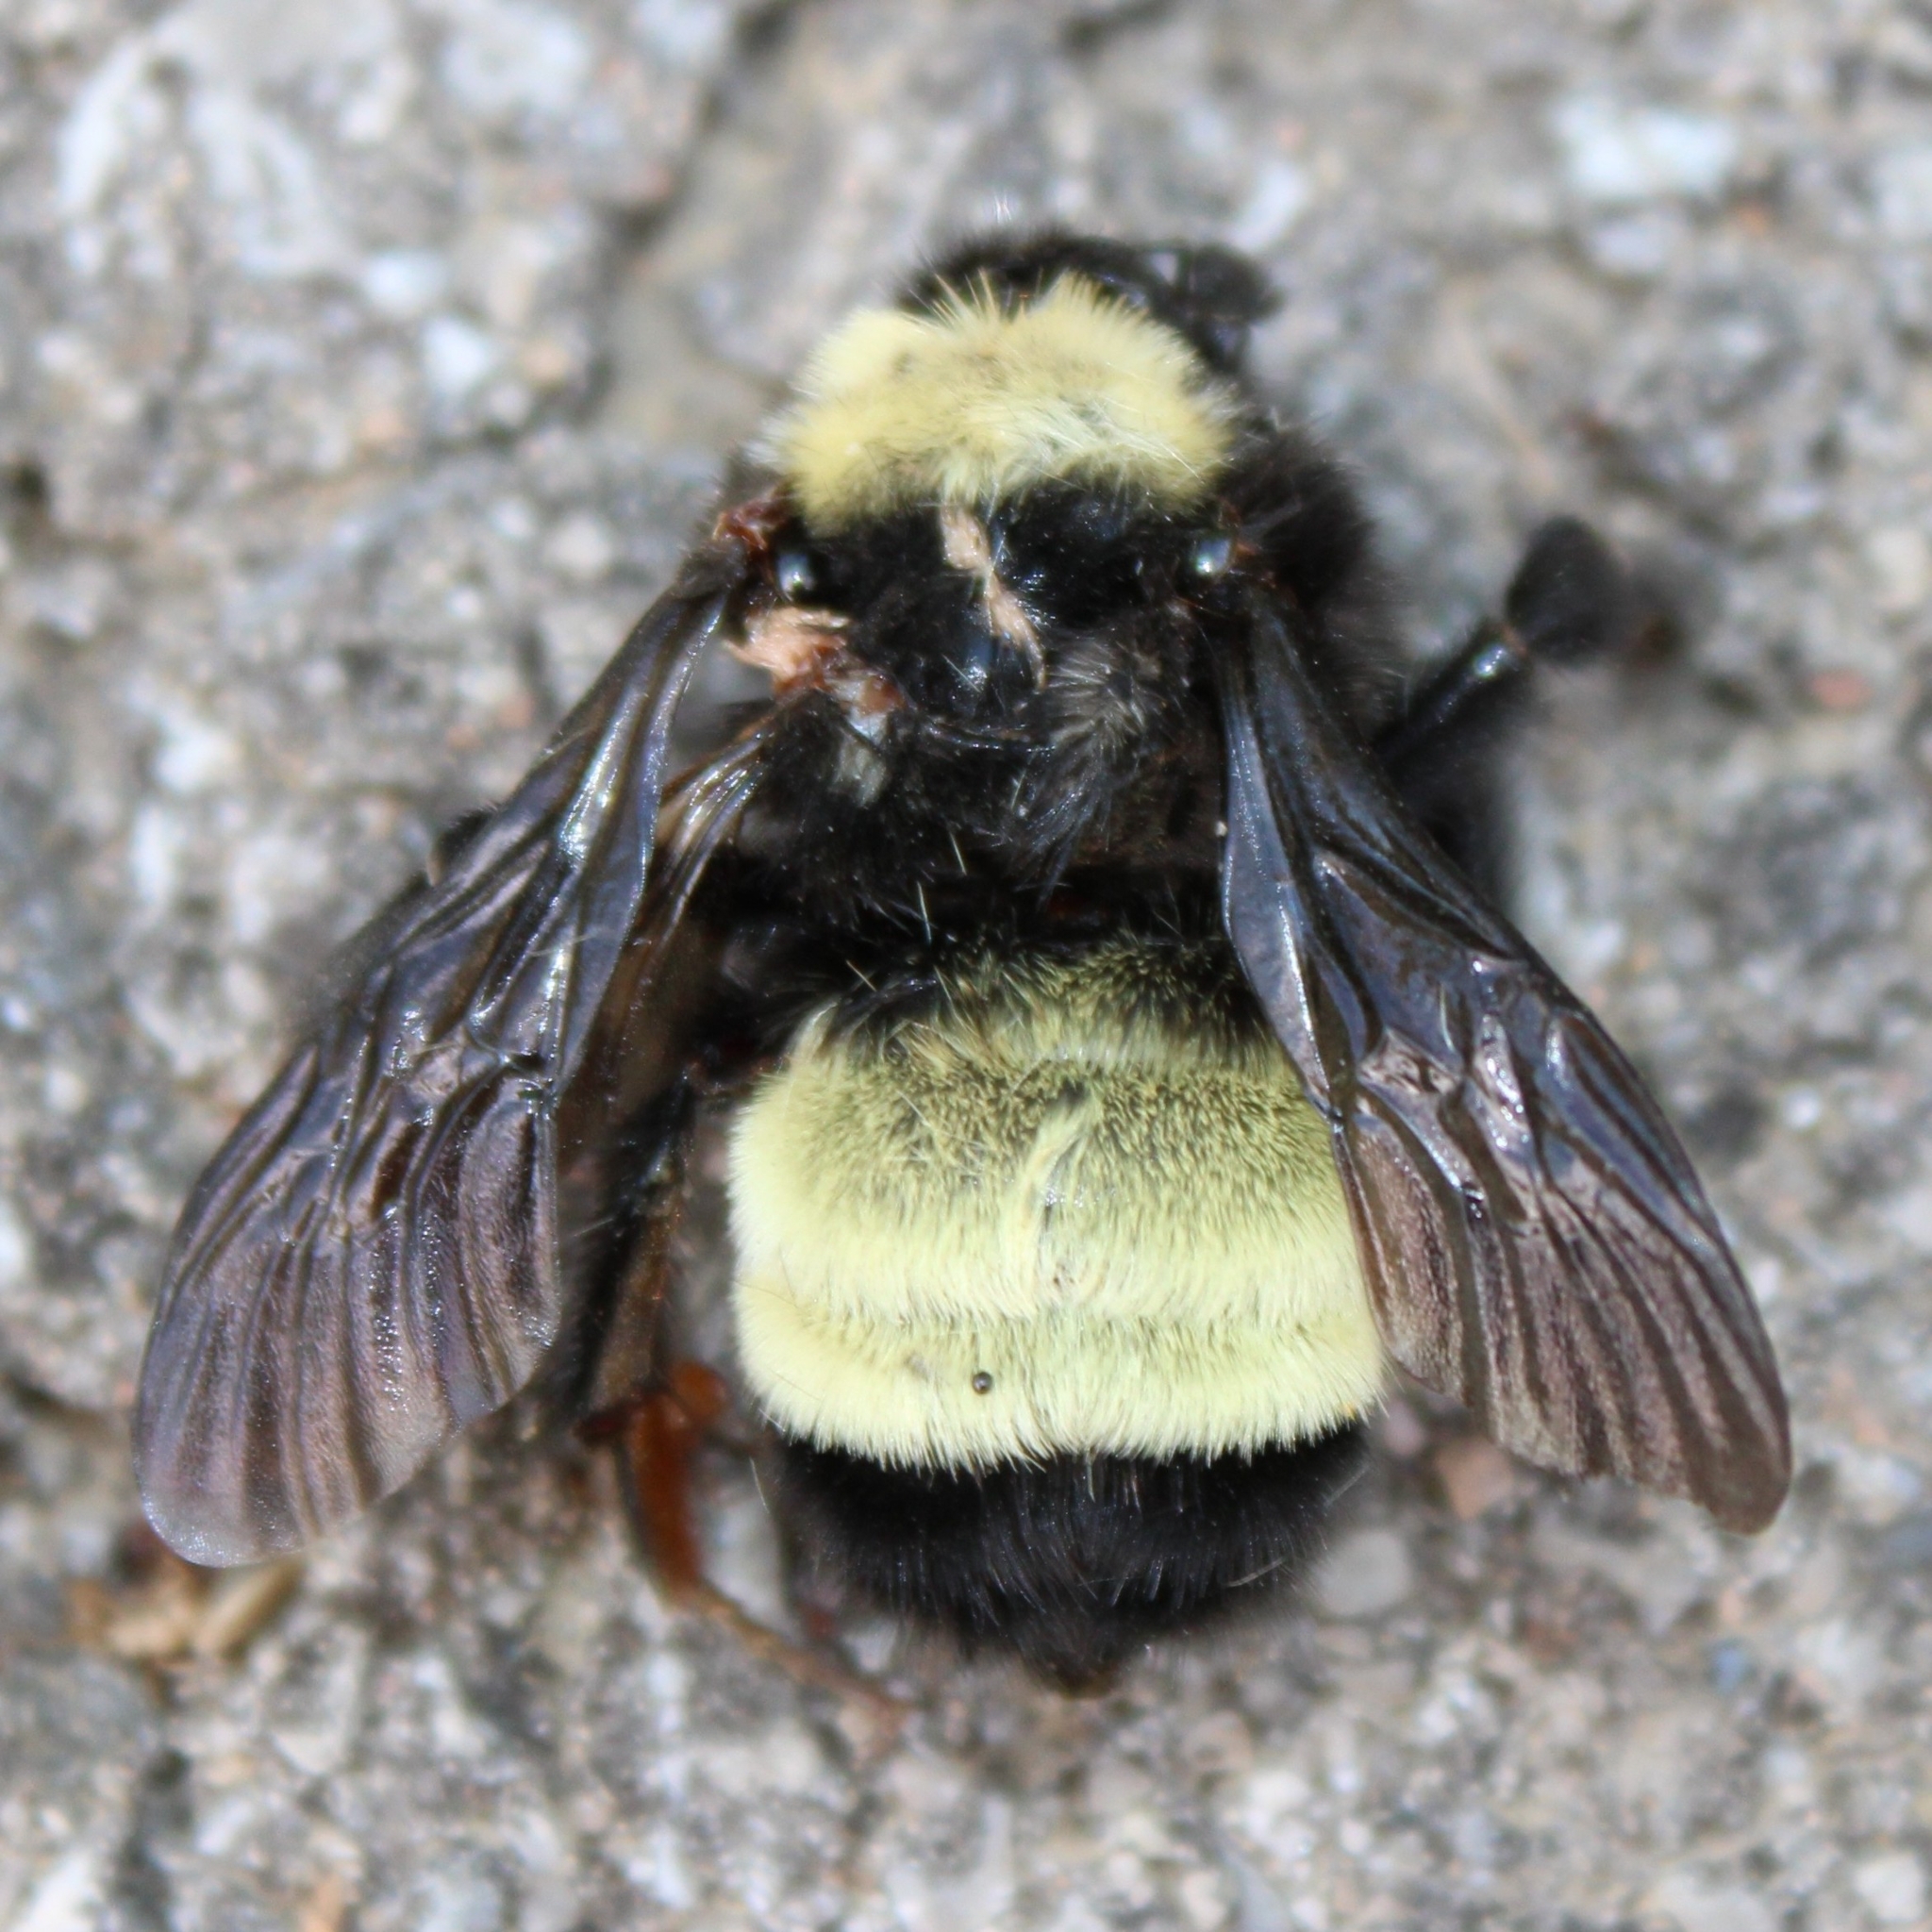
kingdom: Animalia
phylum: Arthropoda
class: Insecta
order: Hymenoptera
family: Apidae
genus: Bombus
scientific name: Bombus pensylvanicus
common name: Bumble bee
